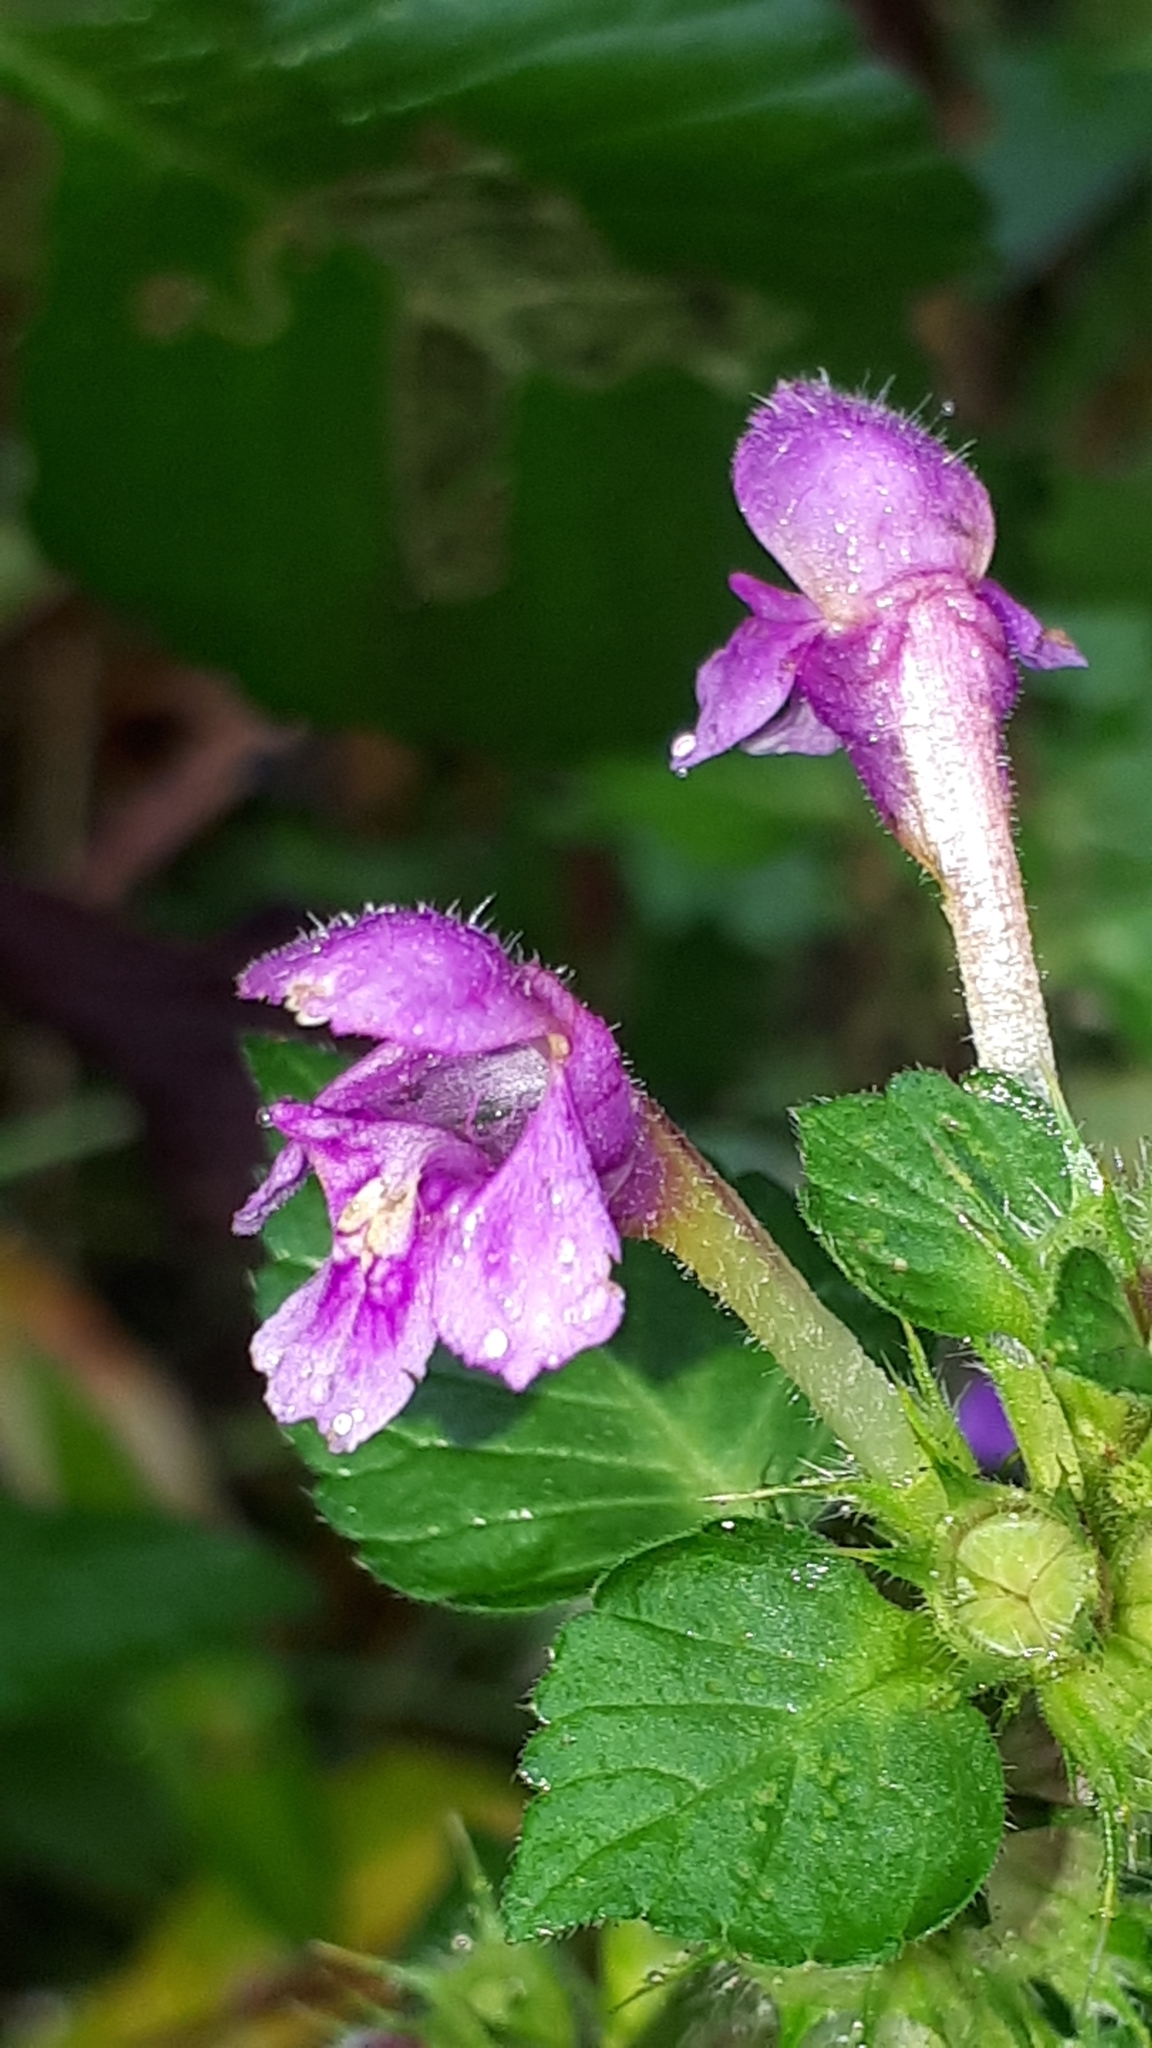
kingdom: Plantae
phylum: Tracheophyta
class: Magnoliopsida
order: Lamiales
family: Lamiaceae
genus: Galeopsis
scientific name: Galeopsis tetrahit
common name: Common hemp-nettle
